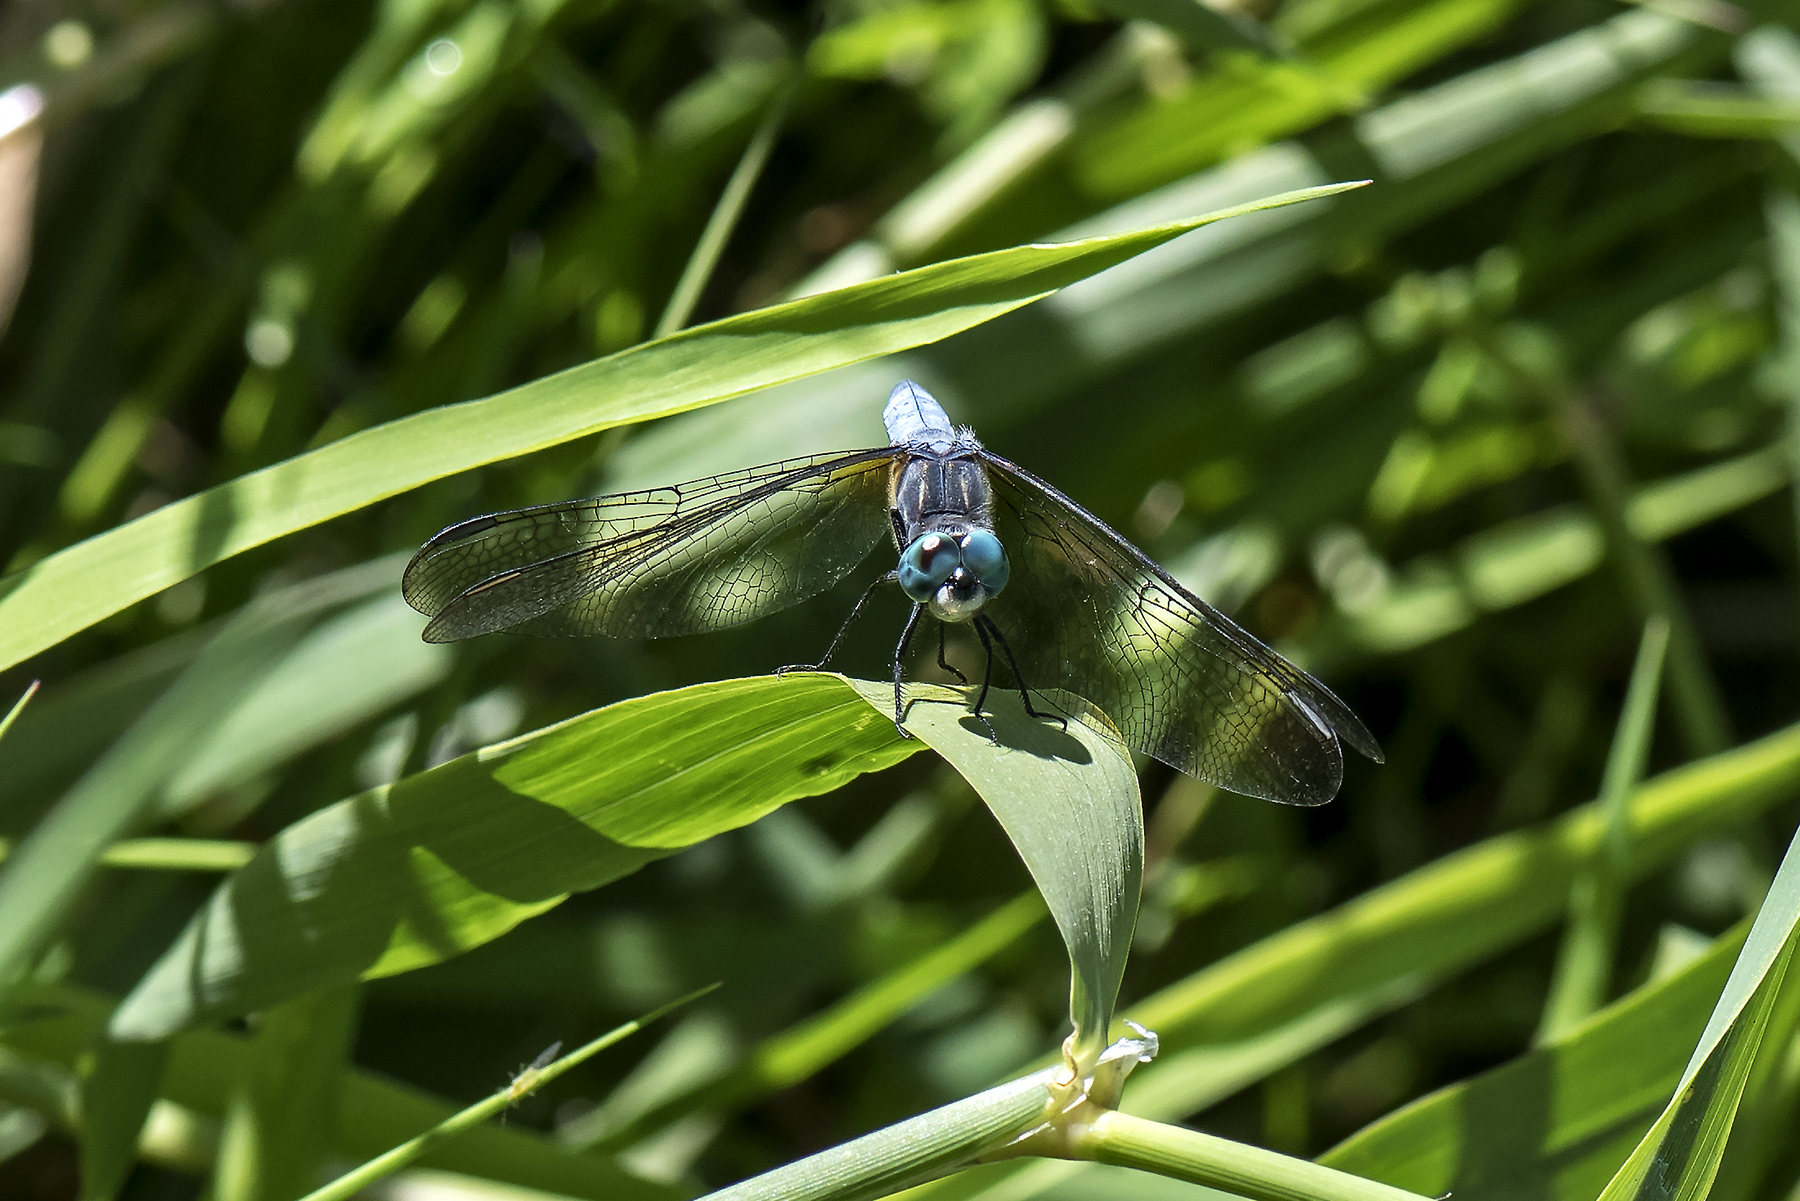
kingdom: Animalia
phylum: Arthropoda
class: Insecta
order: Odonata
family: Libellulidae
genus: Pachydiplax
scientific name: Pachydiplax longipennis
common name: Blue dasher
